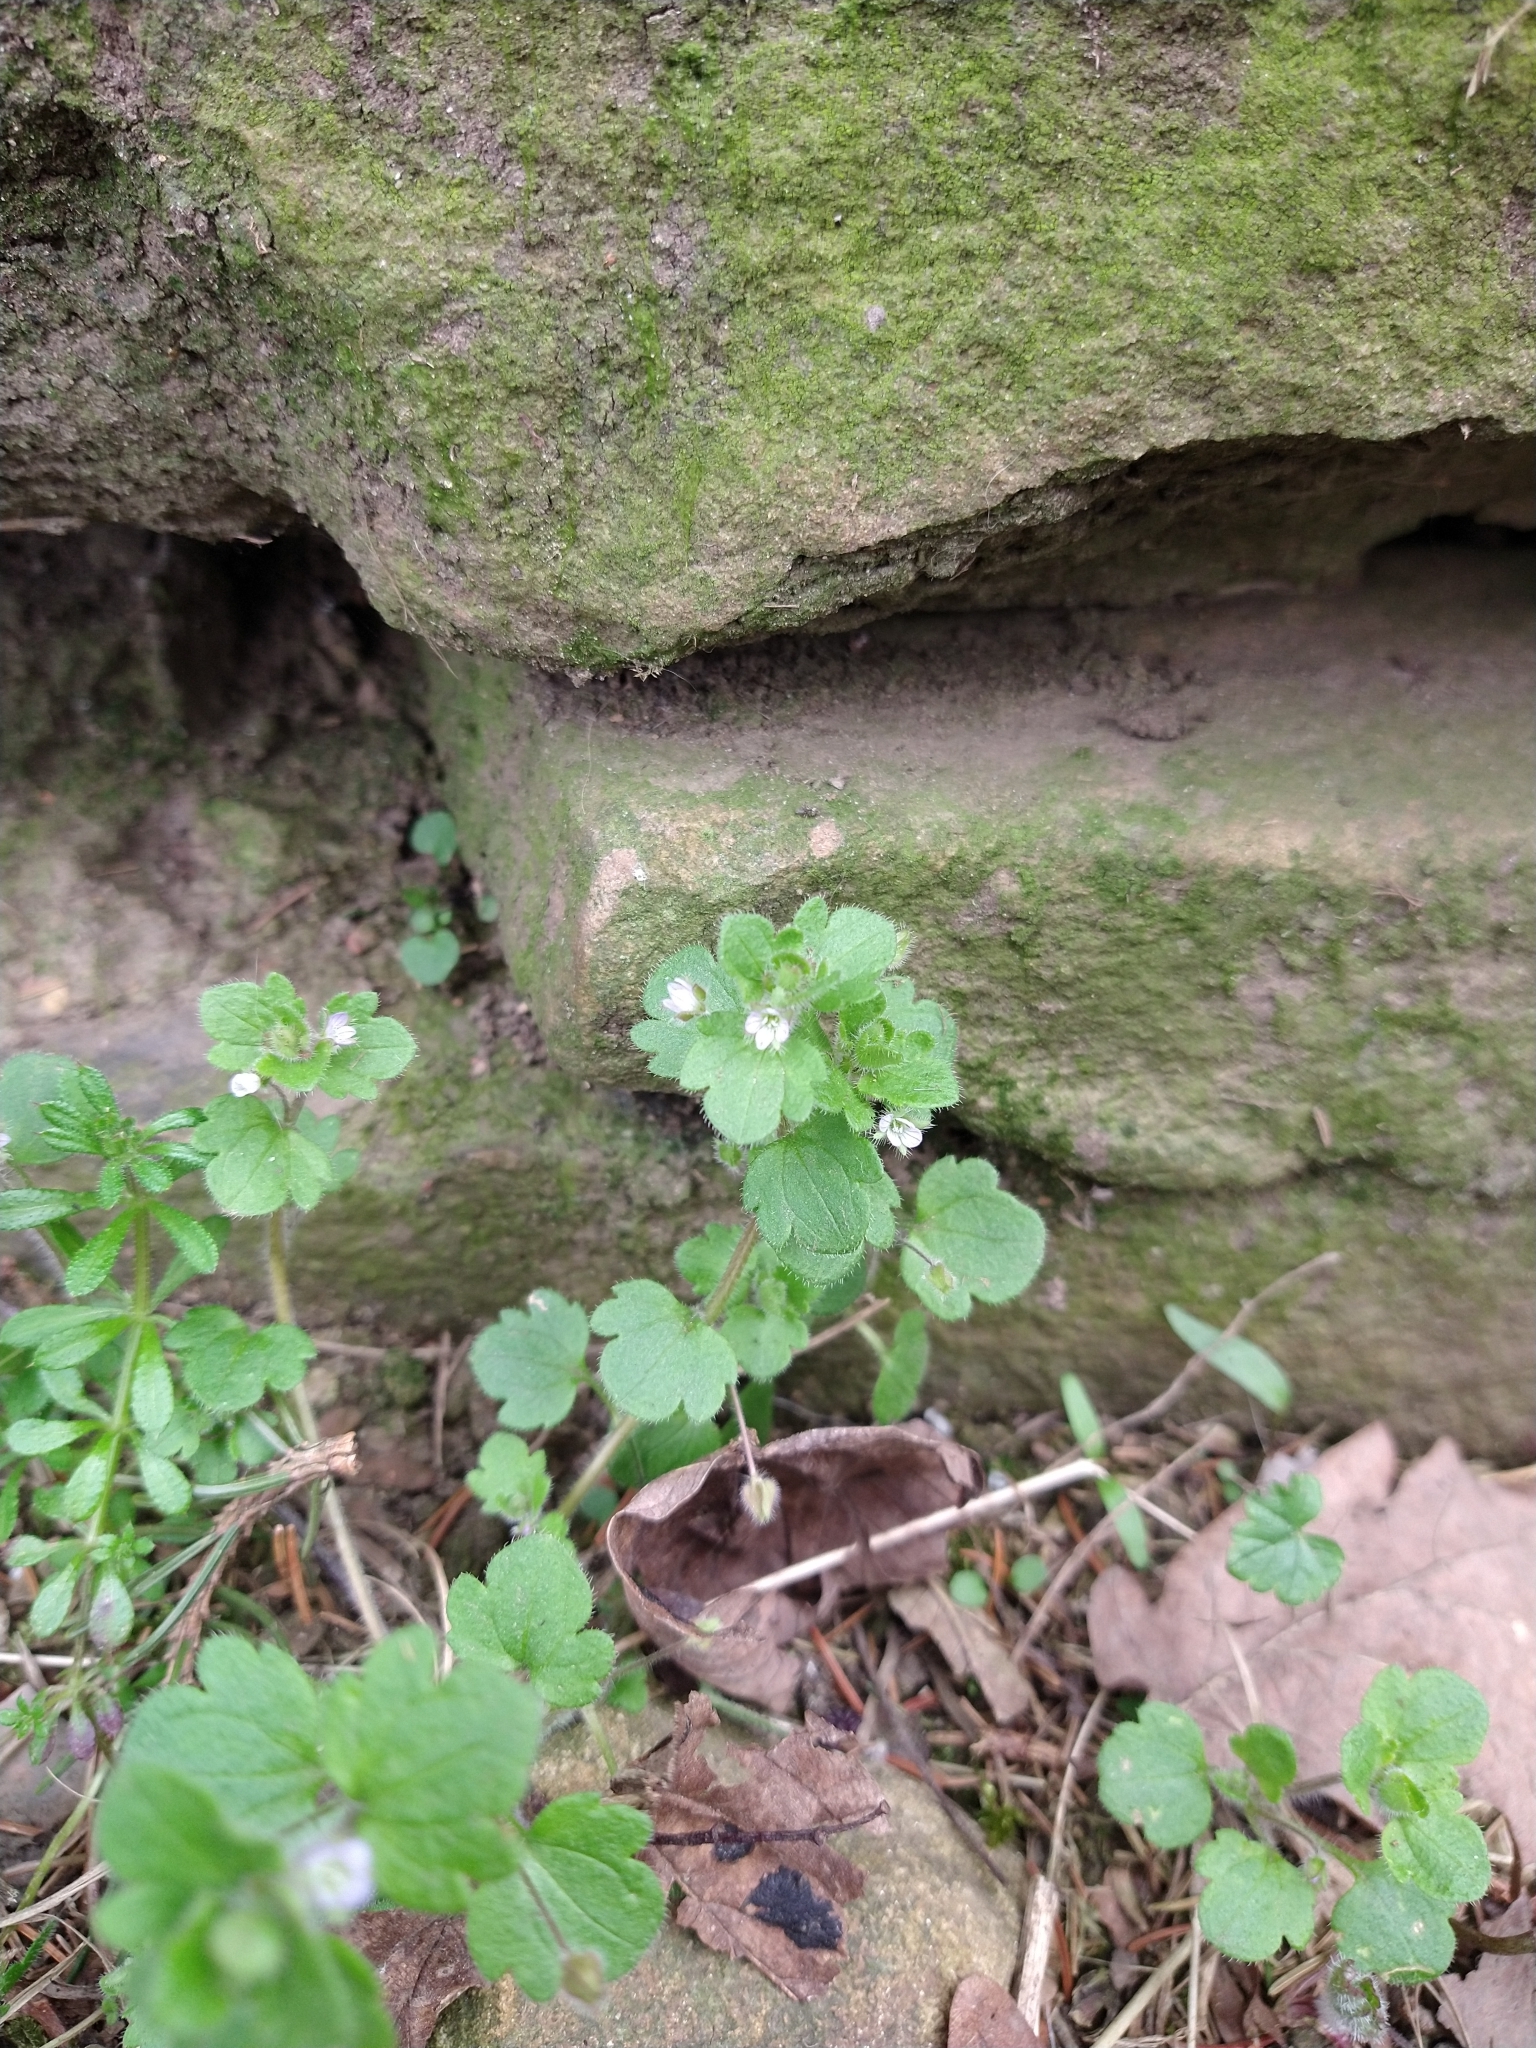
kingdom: Plantae
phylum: Tracheophyta
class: Magnoliopsida
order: Lamiales
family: Plantaginaceae
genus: Veronica
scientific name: Veronica hederifolia
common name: Ivy-leaved speedwell
